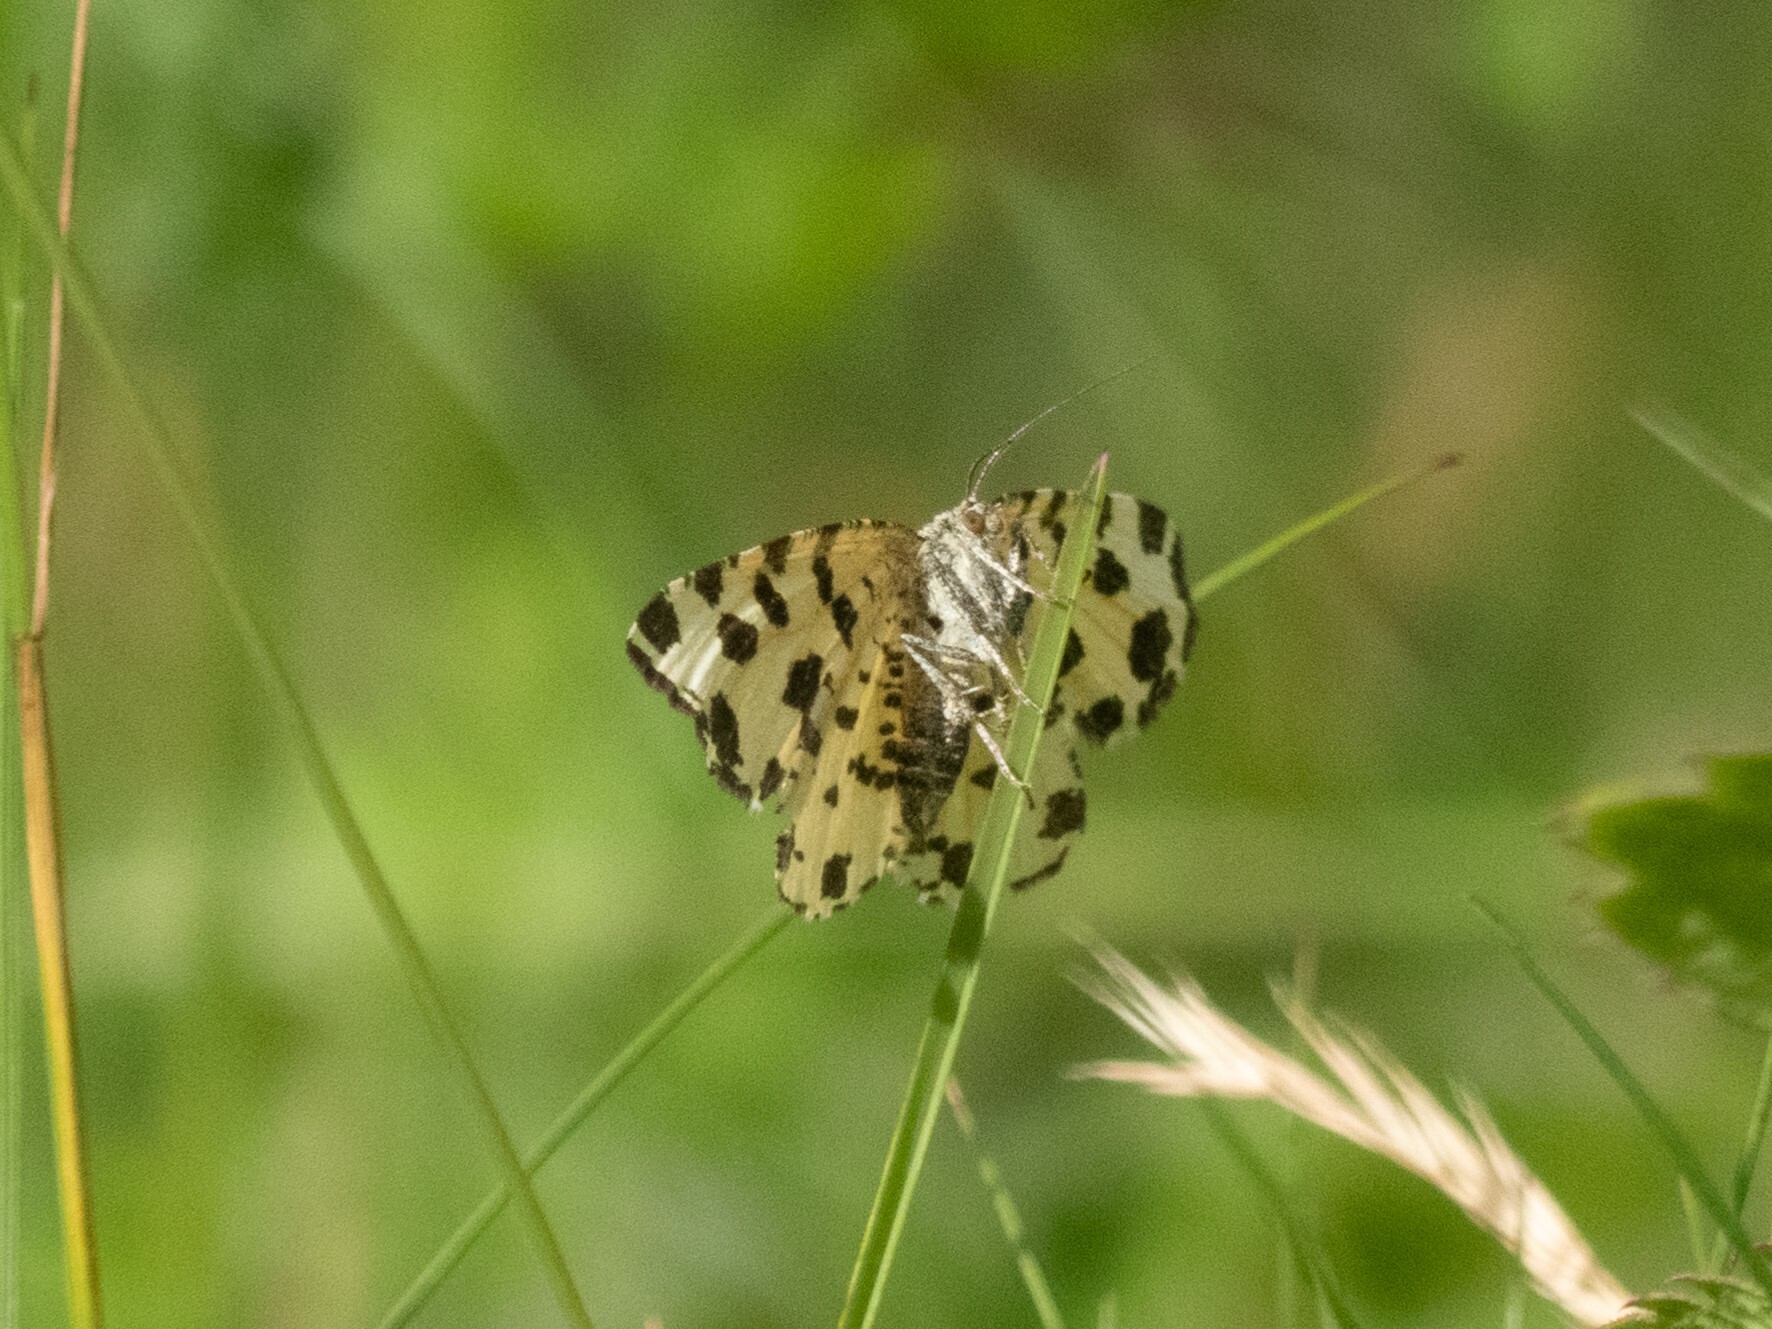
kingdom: Animalia
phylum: Arthropoda
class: Insecta
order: Lepidoptera
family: Geometridae
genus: Pseudopanthera
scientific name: Pseudopanthera macularia
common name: Speckled yellow
